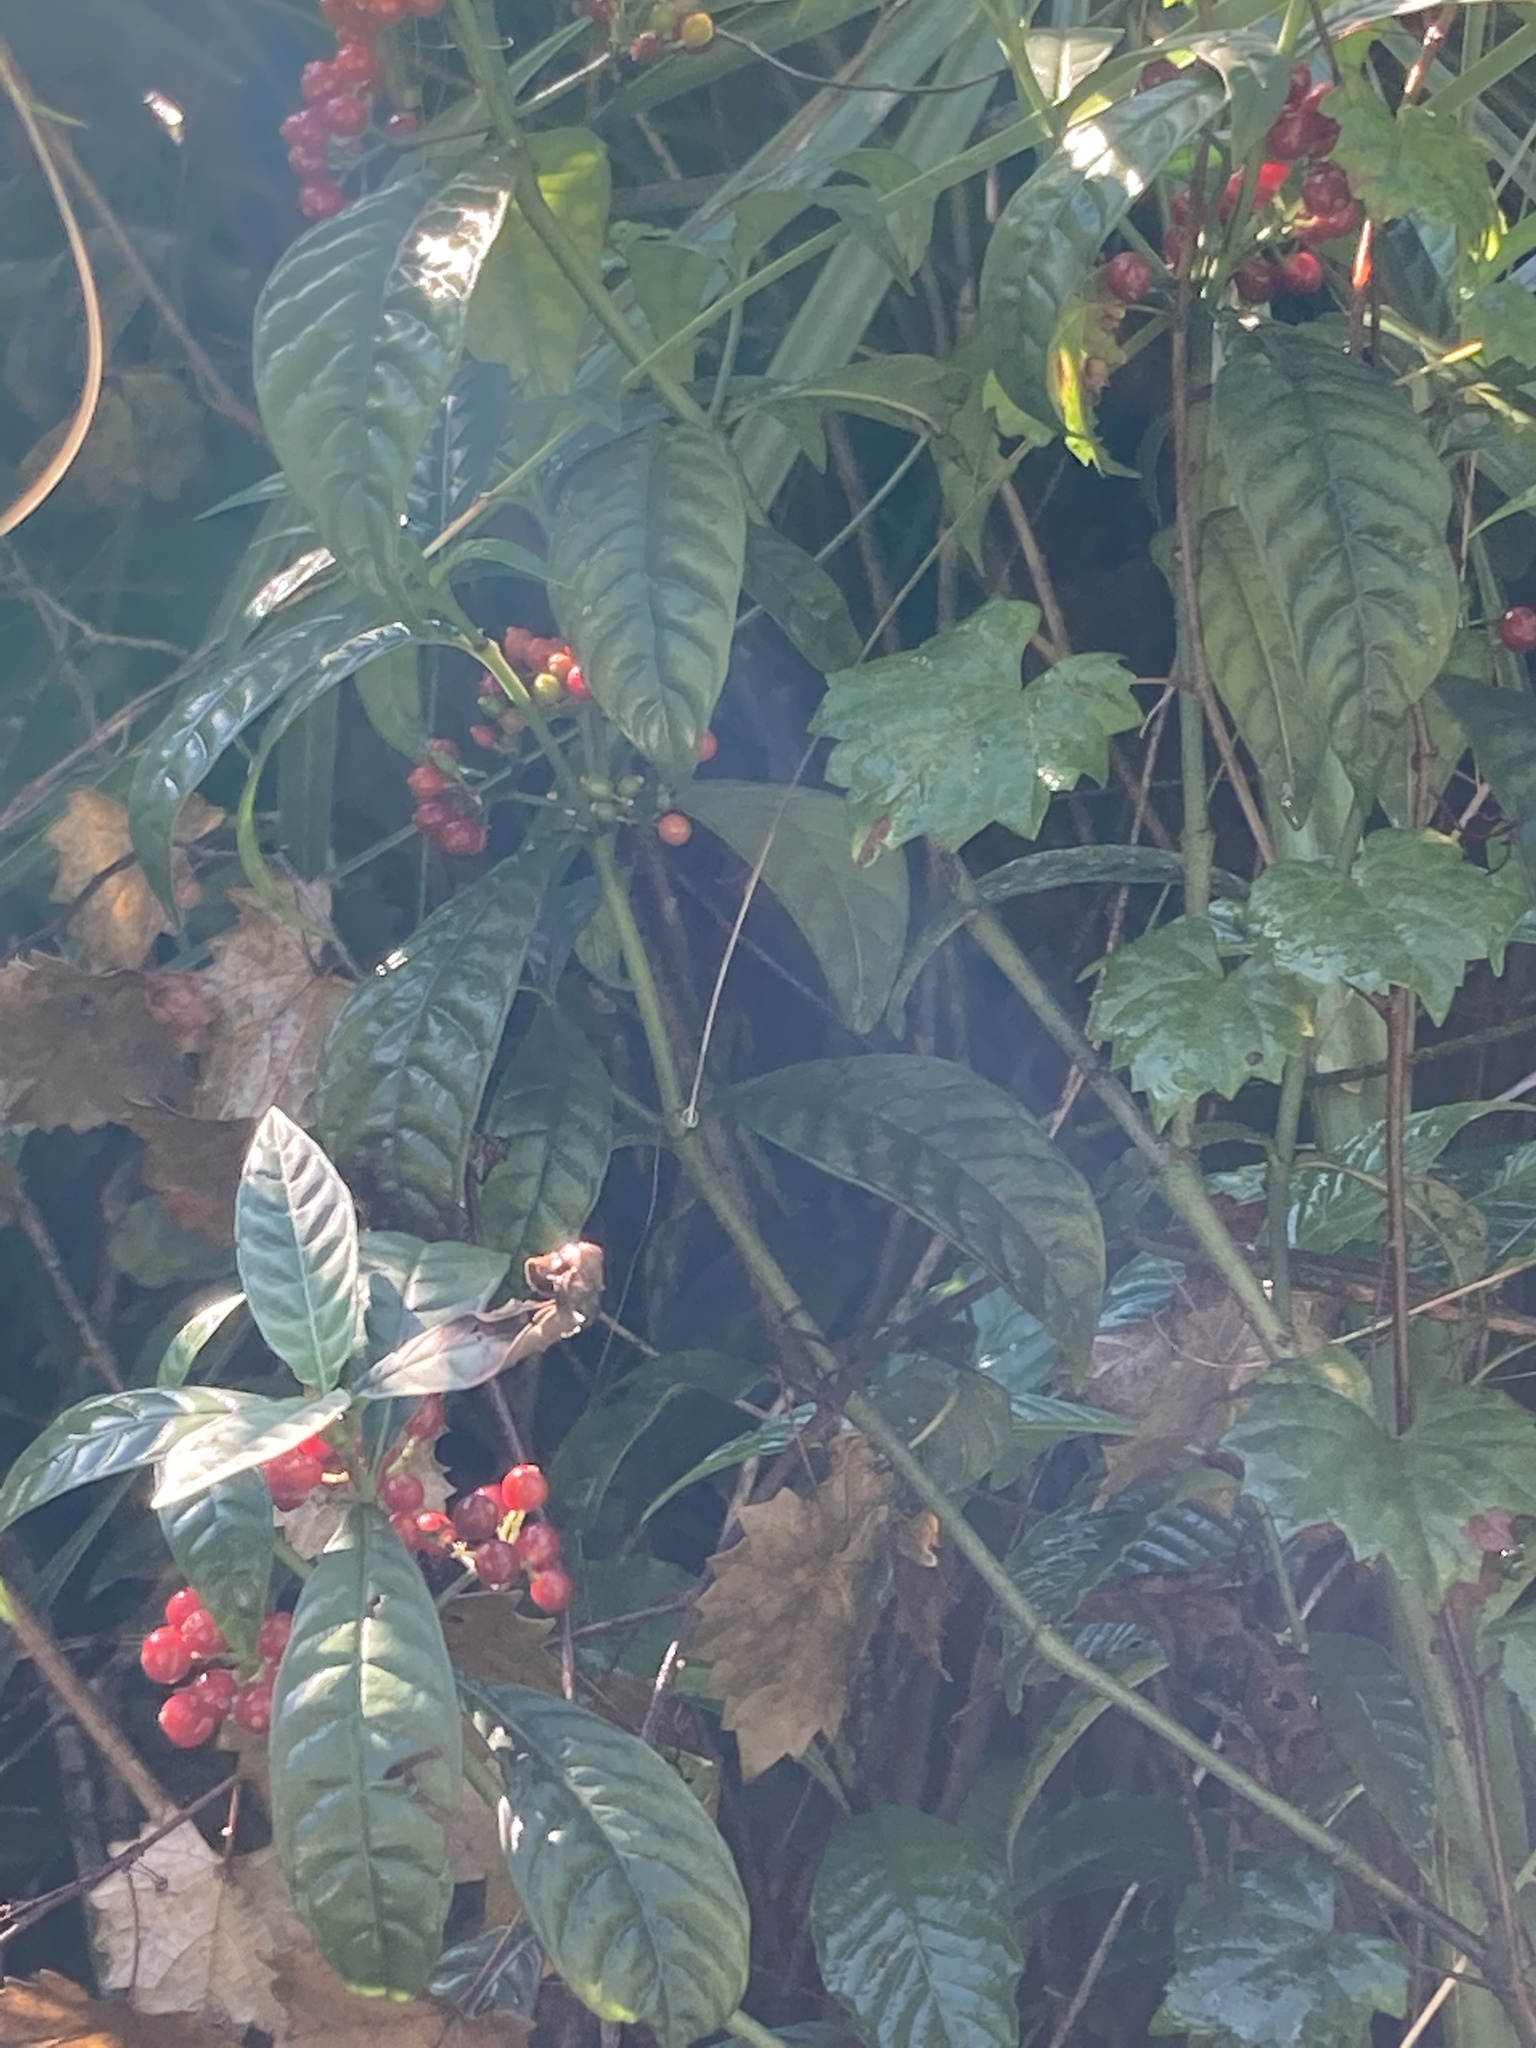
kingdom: Plantae
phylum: Tracheophyta
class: Magnoliopsida
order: Gentianales
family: Rubiaceae
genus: Psychotria
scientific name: Psychotria tenuifolia
